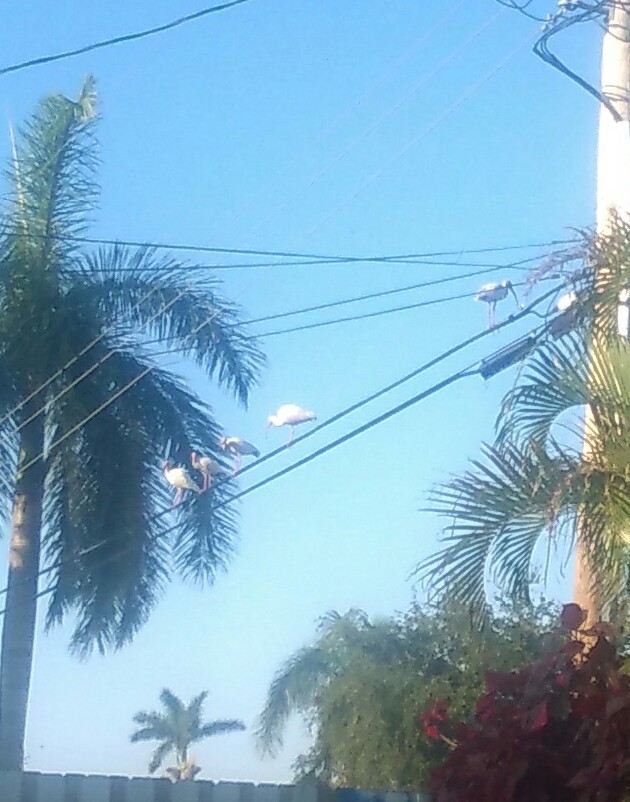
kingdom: Animalia
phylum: Chordata
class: Aves
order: Pelecaniformes
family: Threskiornithidae
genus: Eudocimus
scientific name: Eudocimus albus
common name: White ibis
